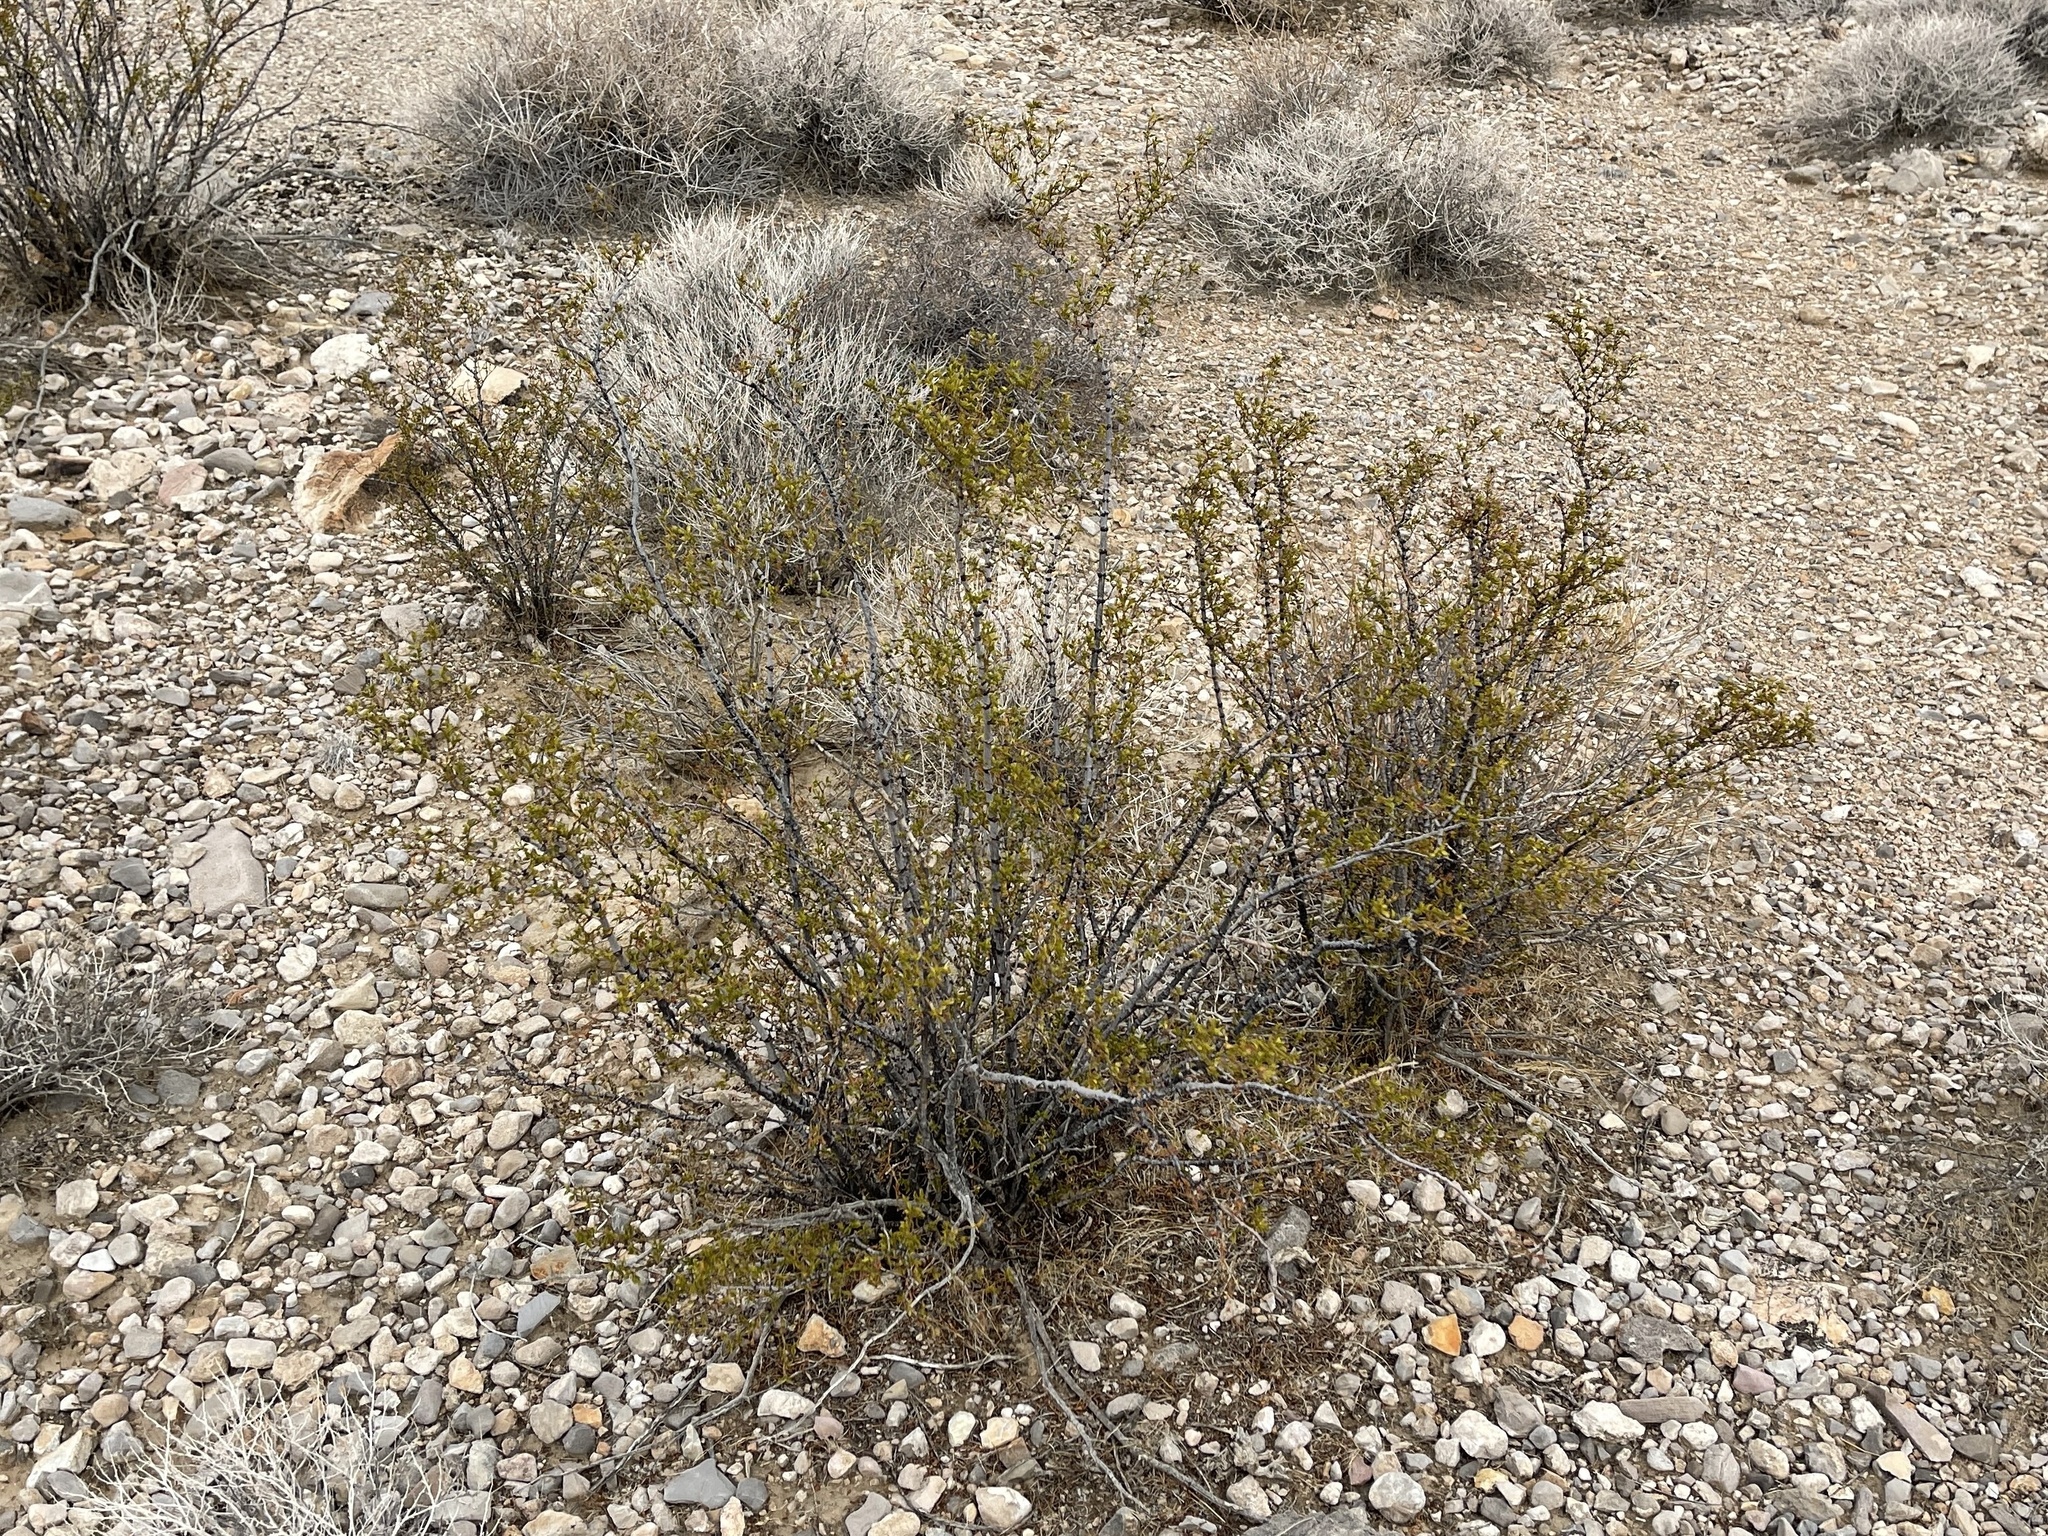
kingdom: Plantae
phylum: Tracheophyta
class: Magnoliopsida
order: Zygophyllales
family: Zygophyllaceae
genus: Larrea
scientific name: Larrea tridentata
